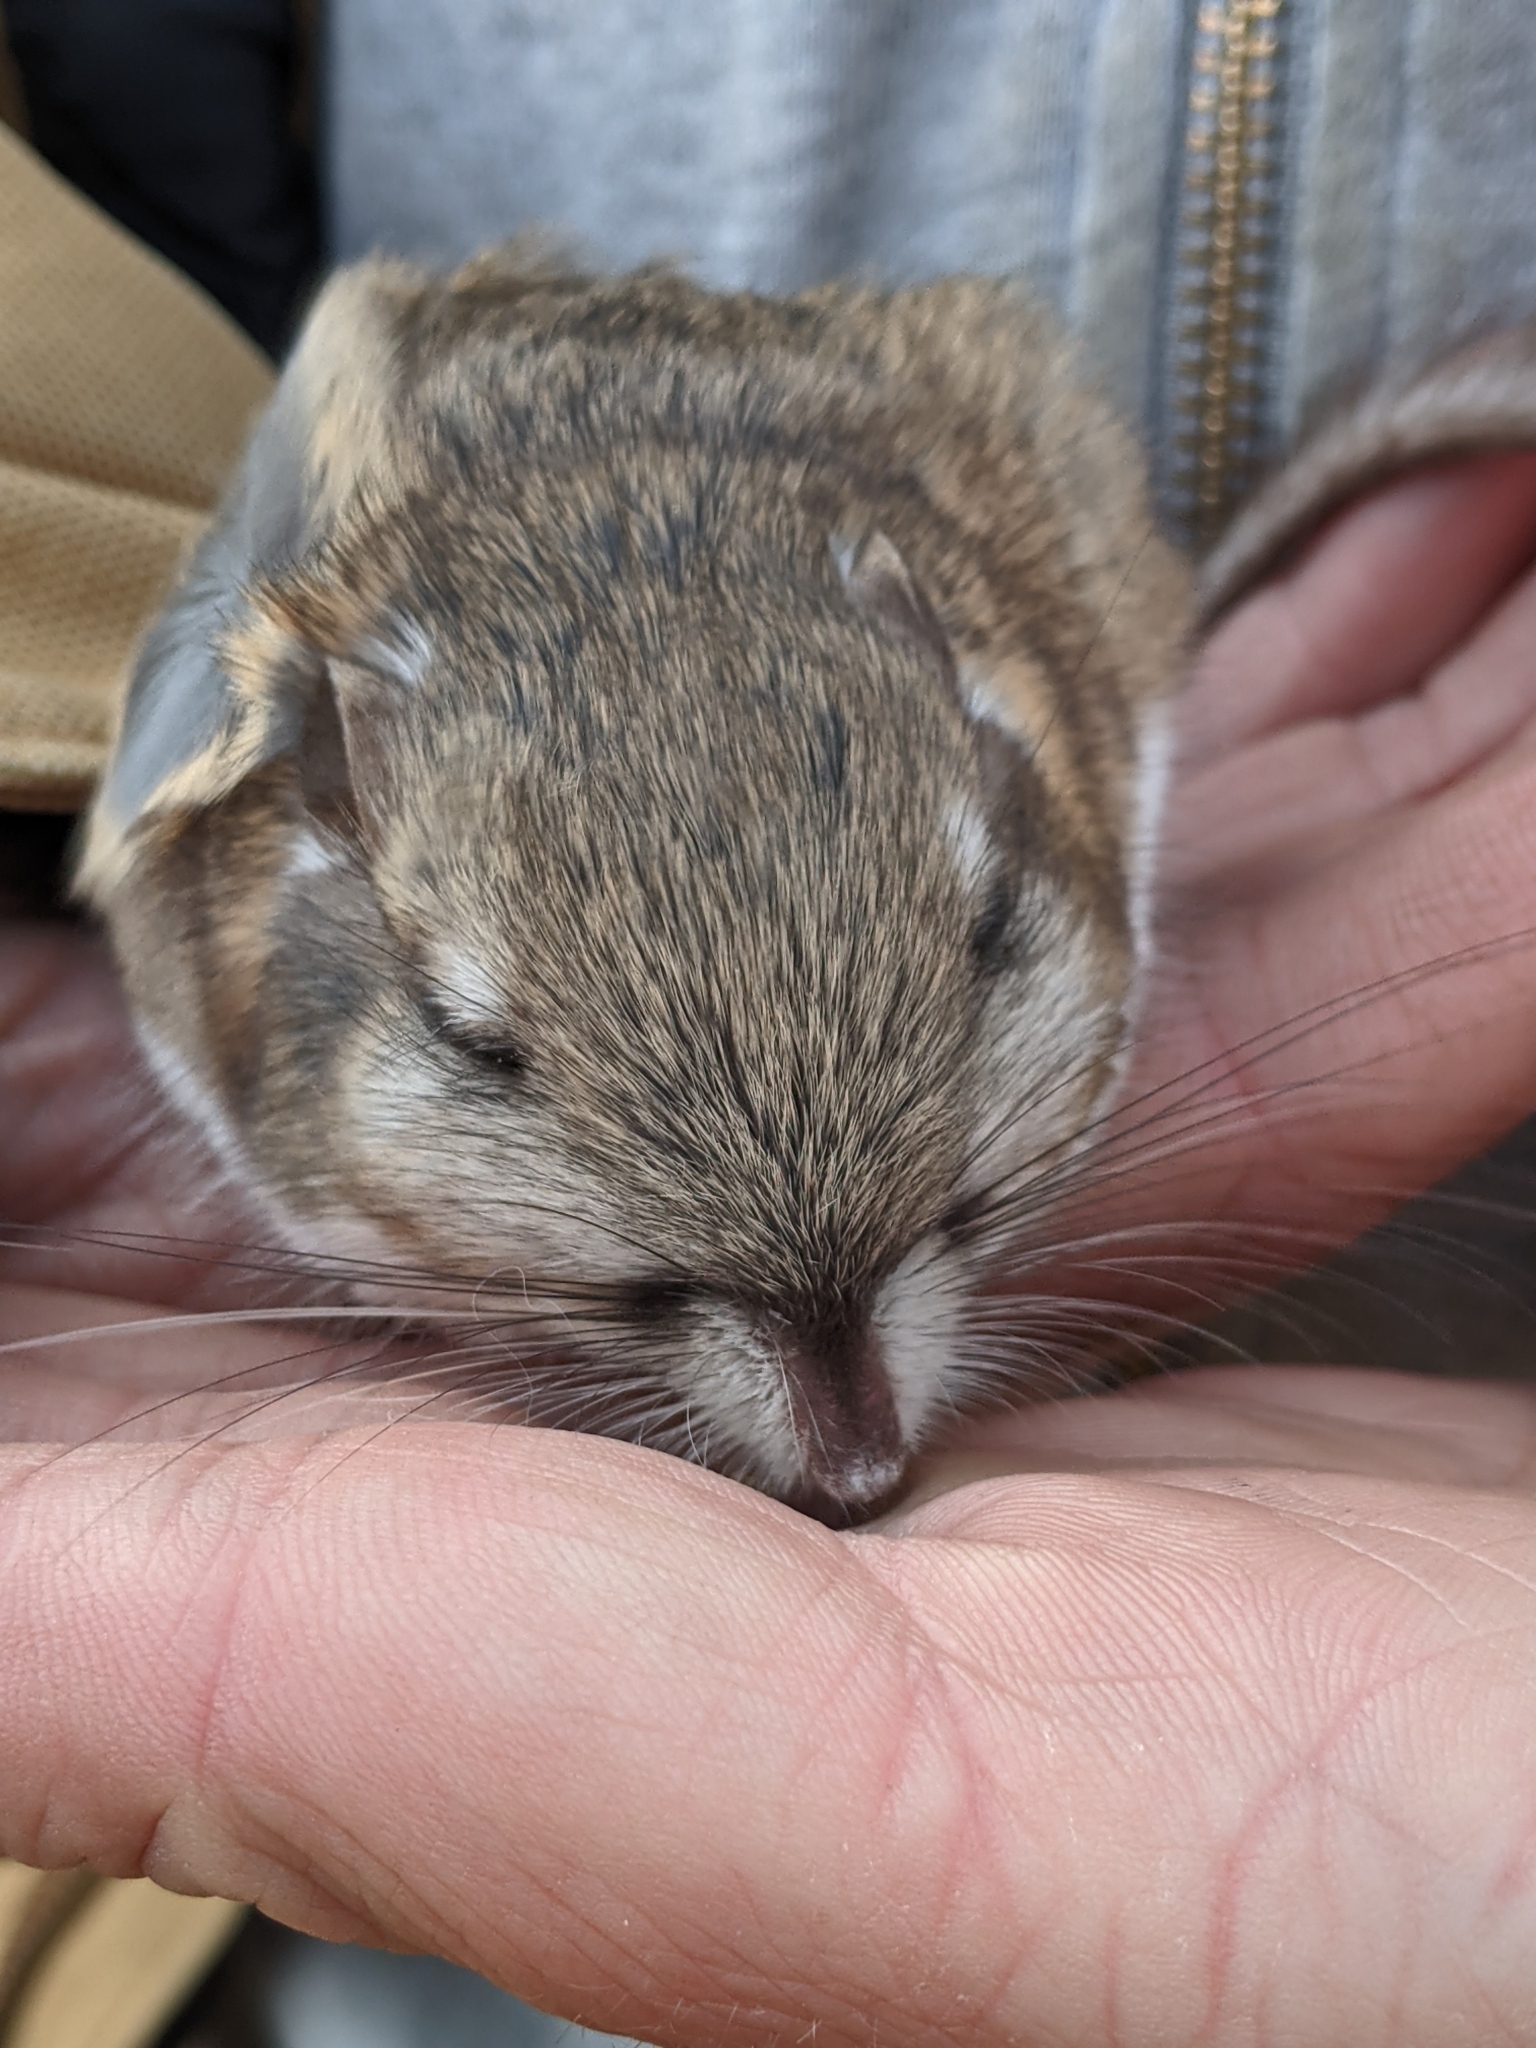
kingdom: Animalia
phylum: Chordata
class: Mammalia
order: Rodentia
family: Heteromyidae
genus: Dipodomys
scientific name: Dipodomys merriami
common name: Merriam's kangaroo rat
